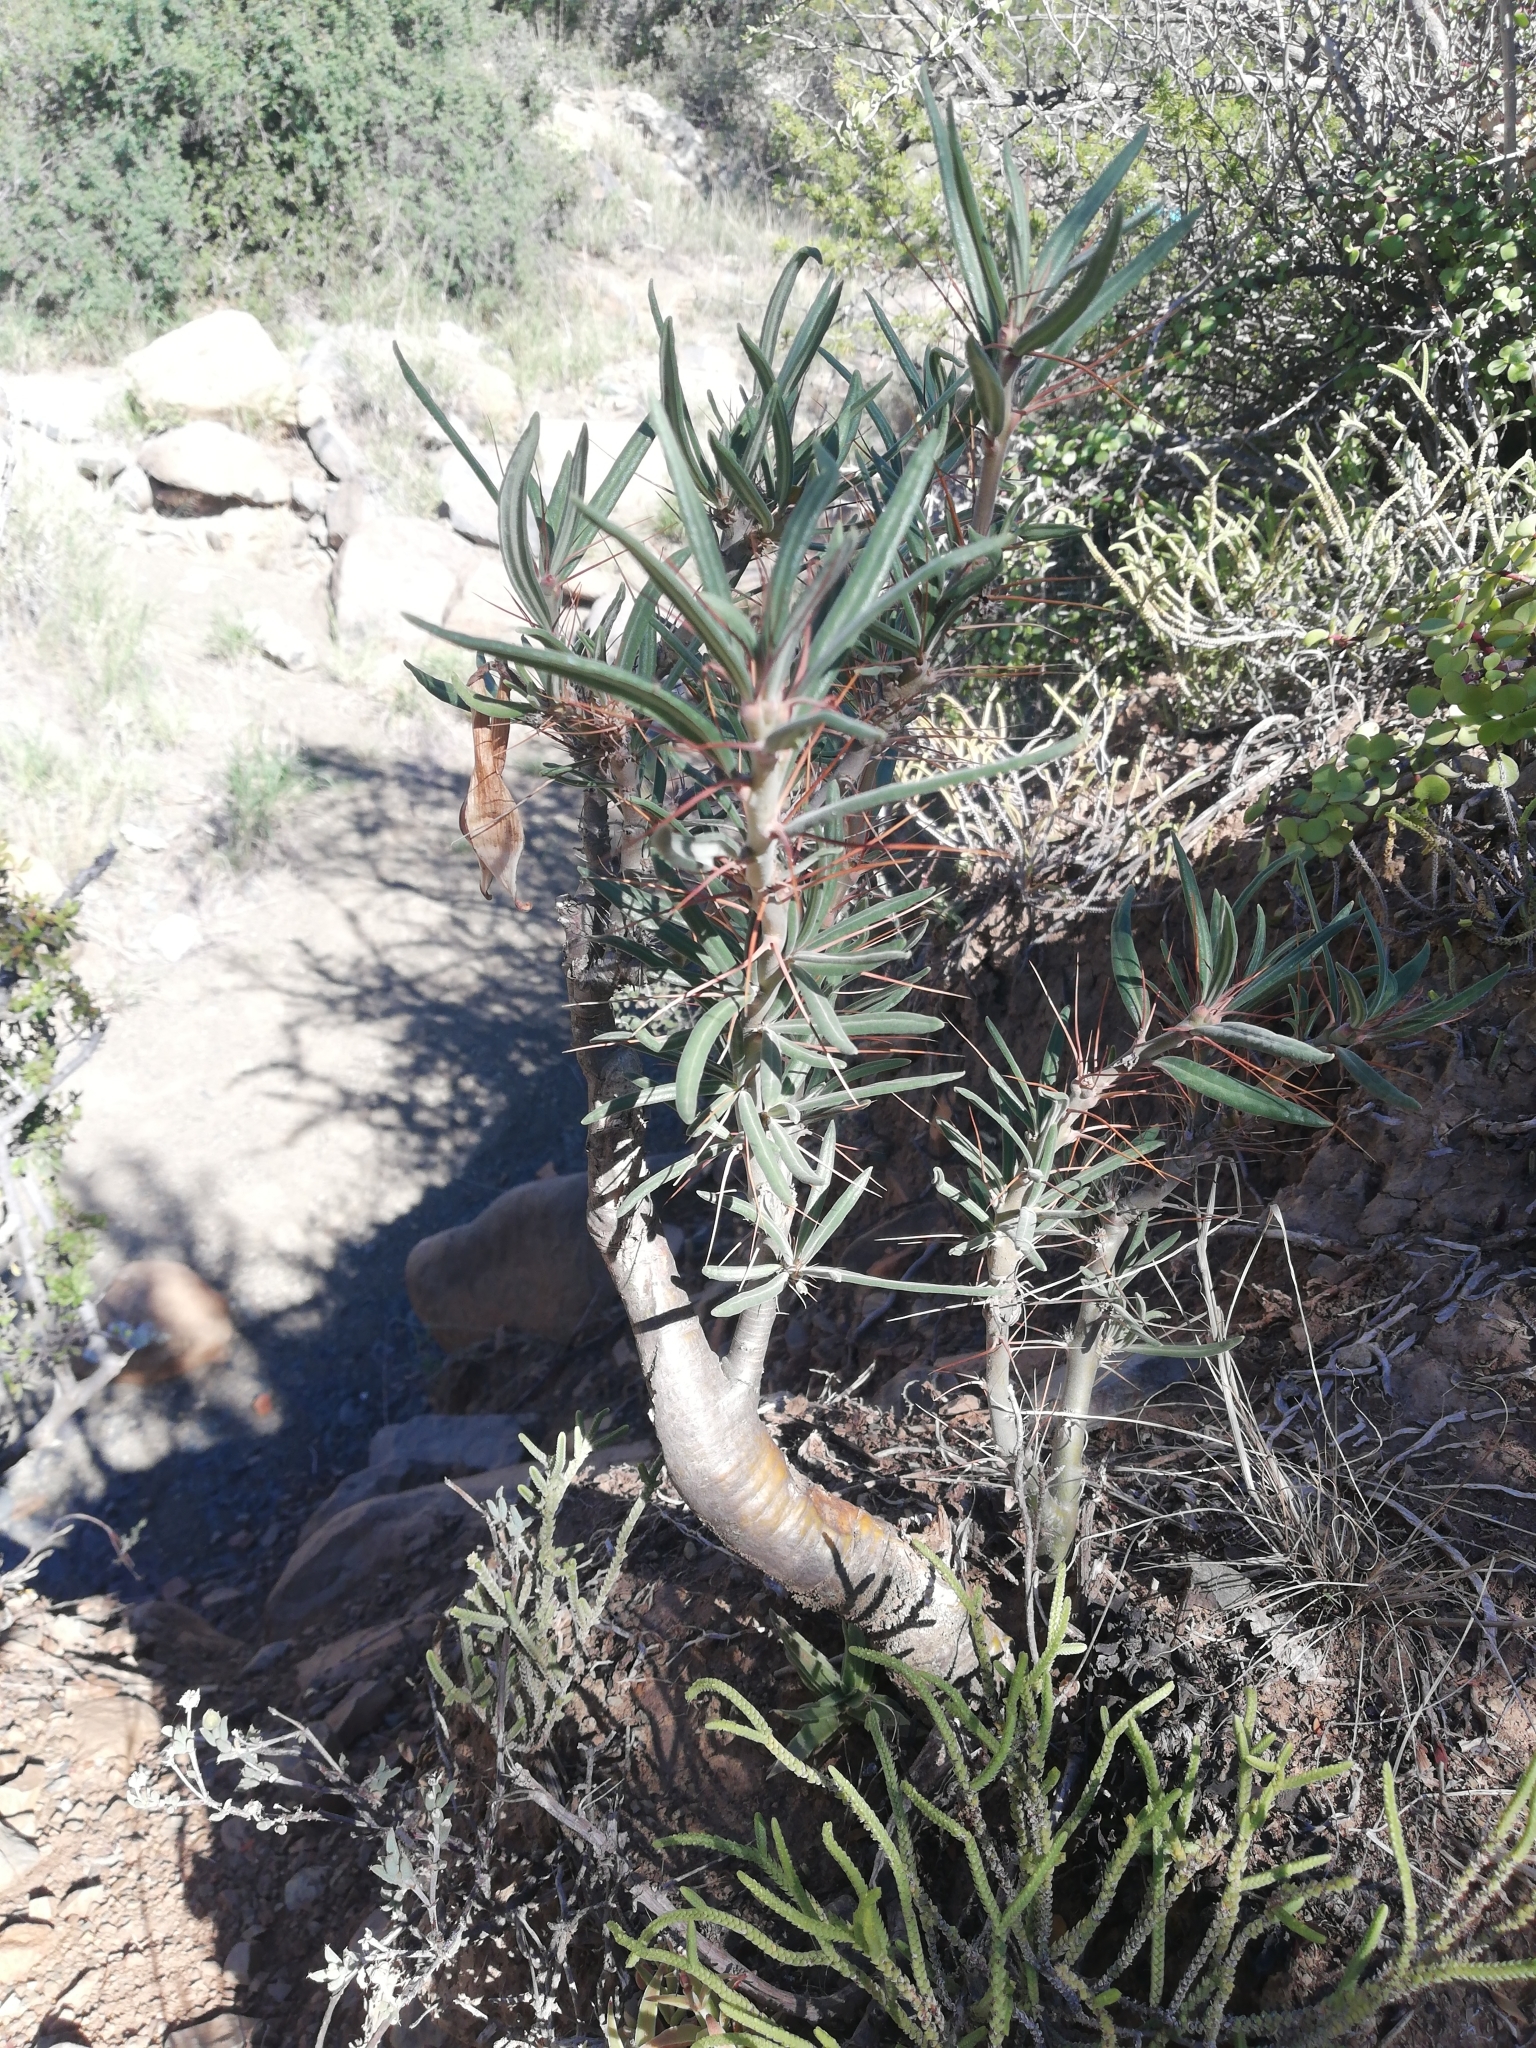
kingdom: Plantae
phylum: Tracheophyta
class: Magnoliopsida
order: Gentianales
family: Apocynaceae
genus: Pachypodium
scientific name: Pachypodium succulentum
